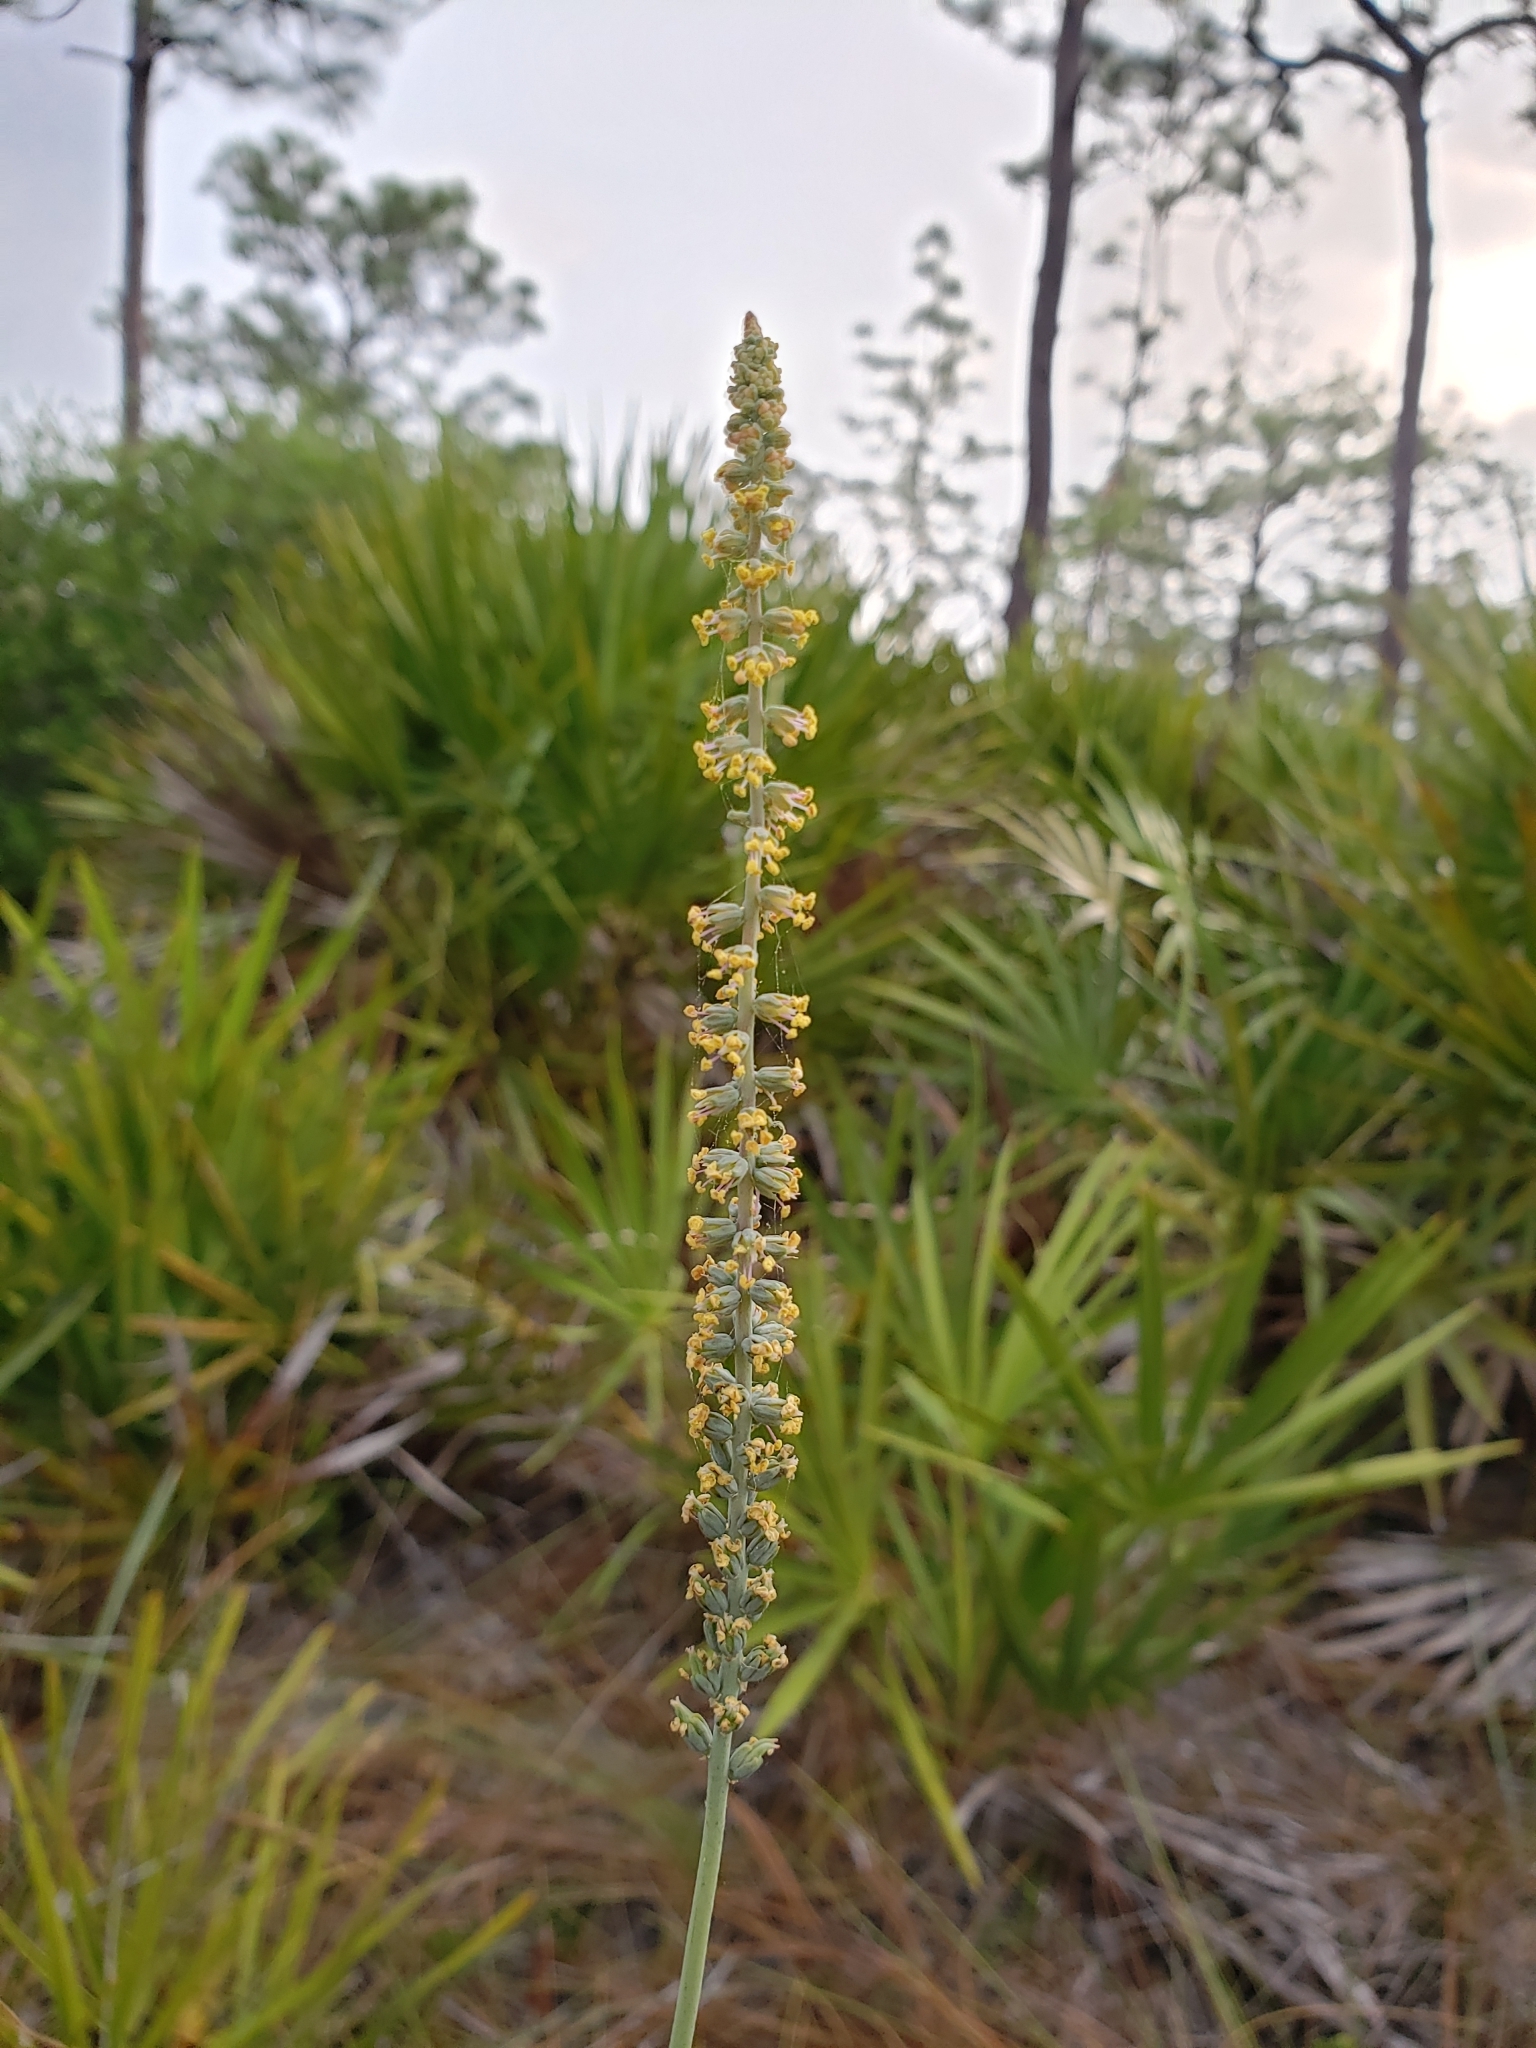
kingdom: Plantae
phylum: Tracheophyta
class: Liliopsida
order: Liliales
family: Melanthiaceae
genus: Schoenocaulon
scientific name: Schoenocaulon dubium
